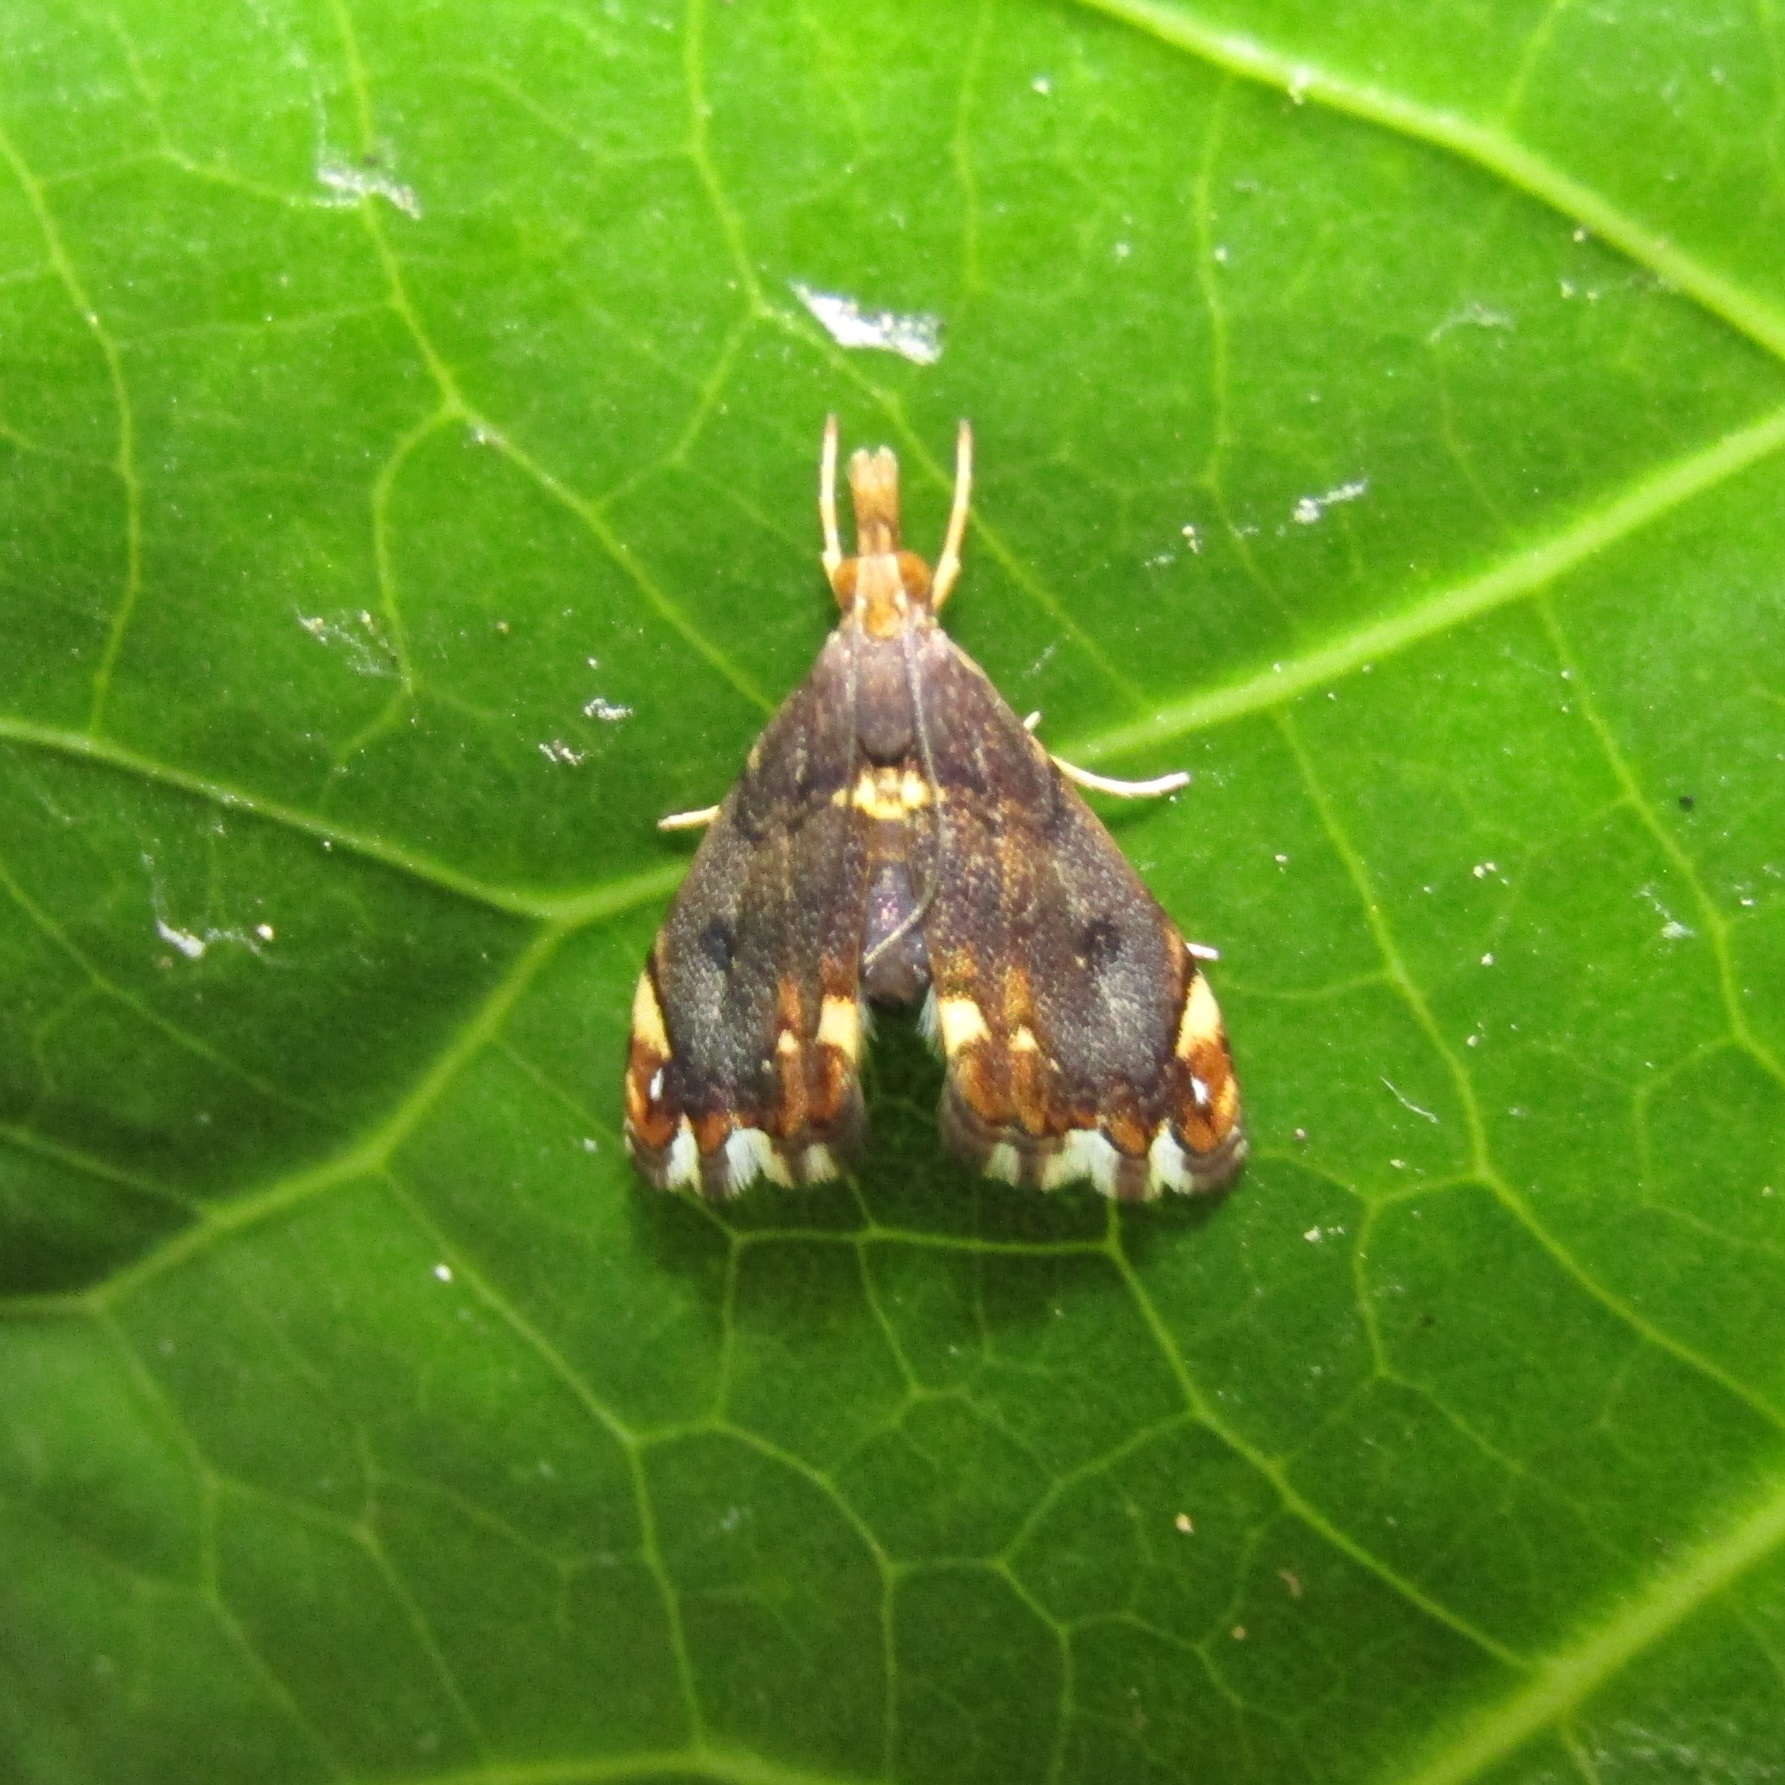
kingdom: Animalia
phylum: Arthropoda
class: Insecta
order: Lepidoptera
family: Crambidae
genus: Glaucocharis
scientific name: Glaucocharis pyrsophanes
